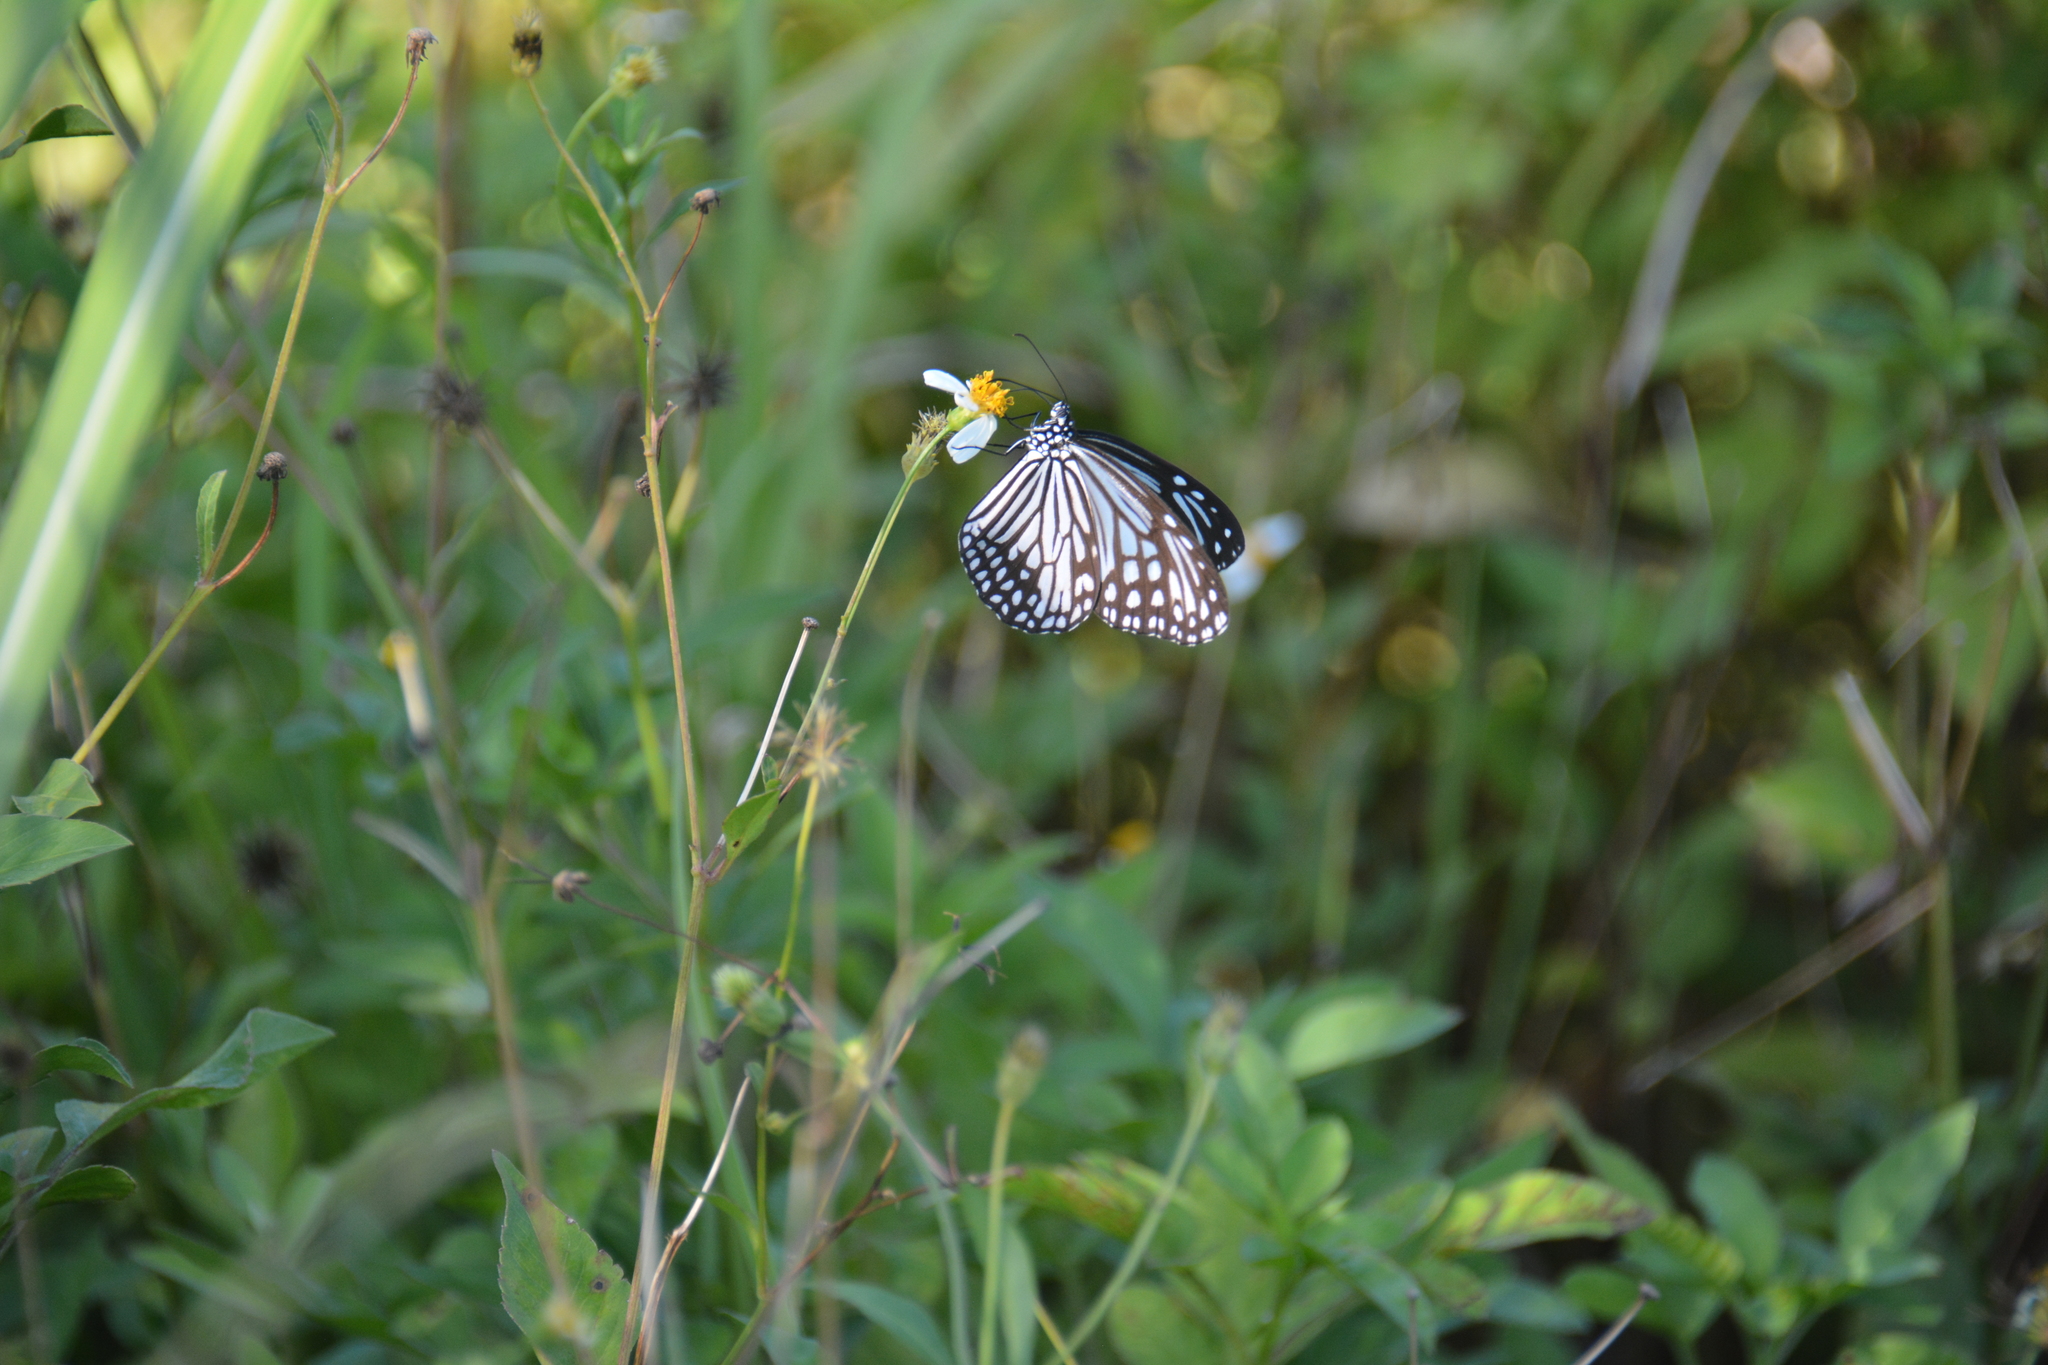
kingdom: Animalia
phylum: Arthropoda
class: Insecta
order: Lepidoptera
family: Nymphalidae
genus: Parantica
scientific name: Parantica aglea
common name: Glassy tiger
